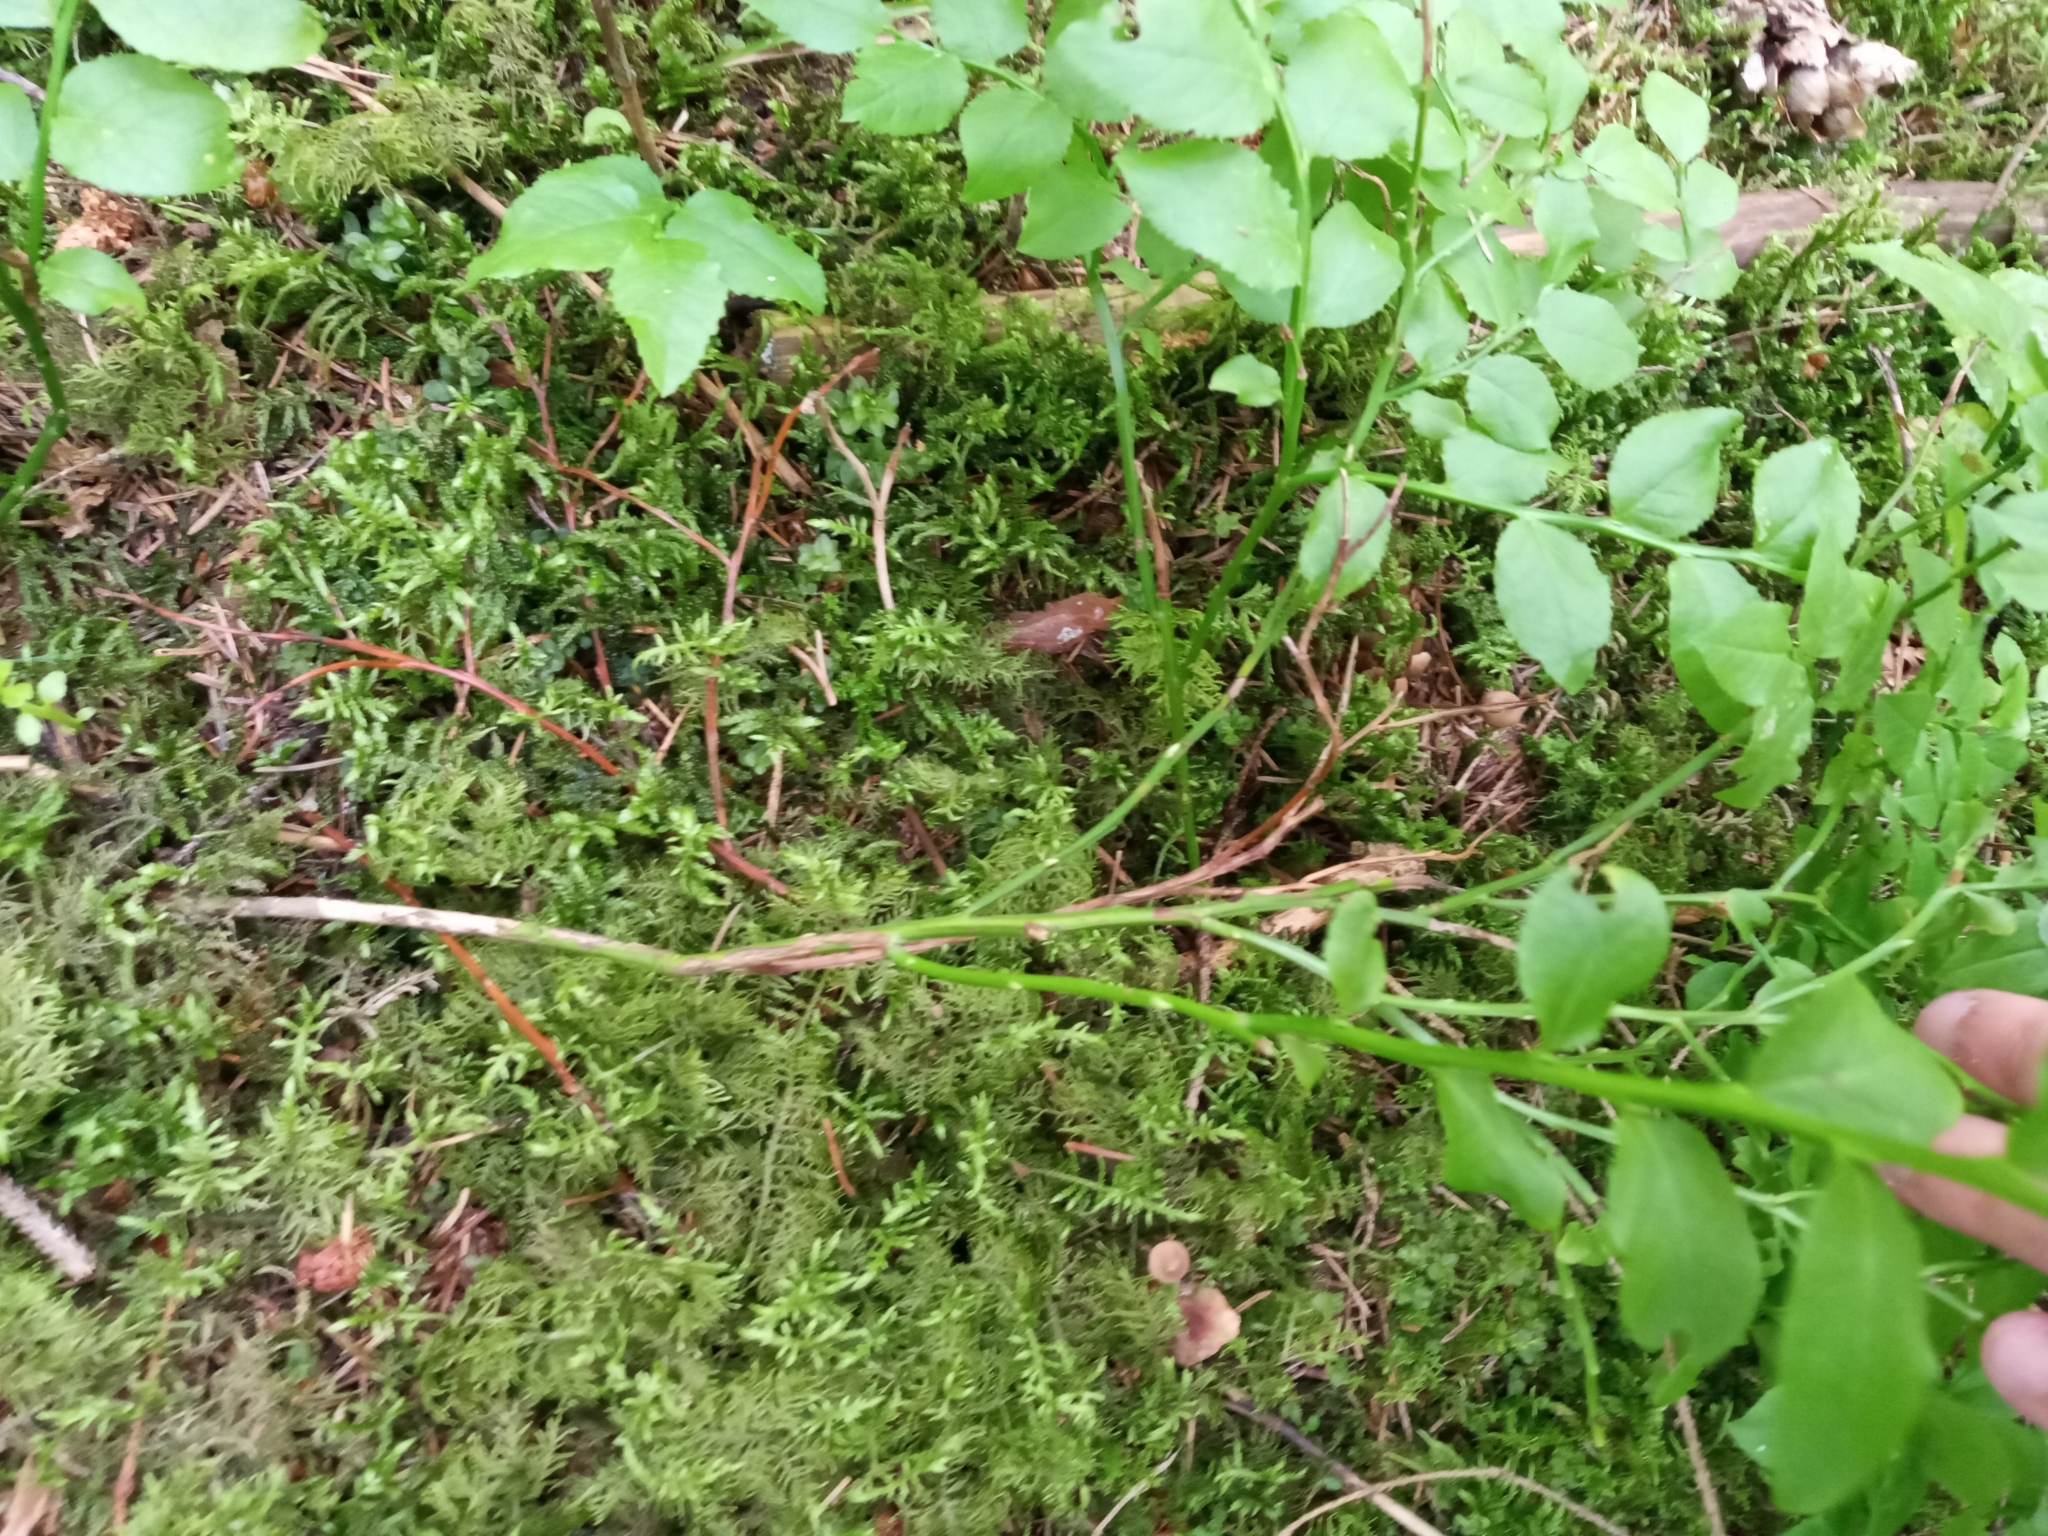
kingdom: Plantae
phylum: Tracheophyta
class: Magnoliopsida
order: Ericales
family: Ericaceae
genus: Vaccinium
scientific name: Vaccinium myrtillus
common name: Bilberry
